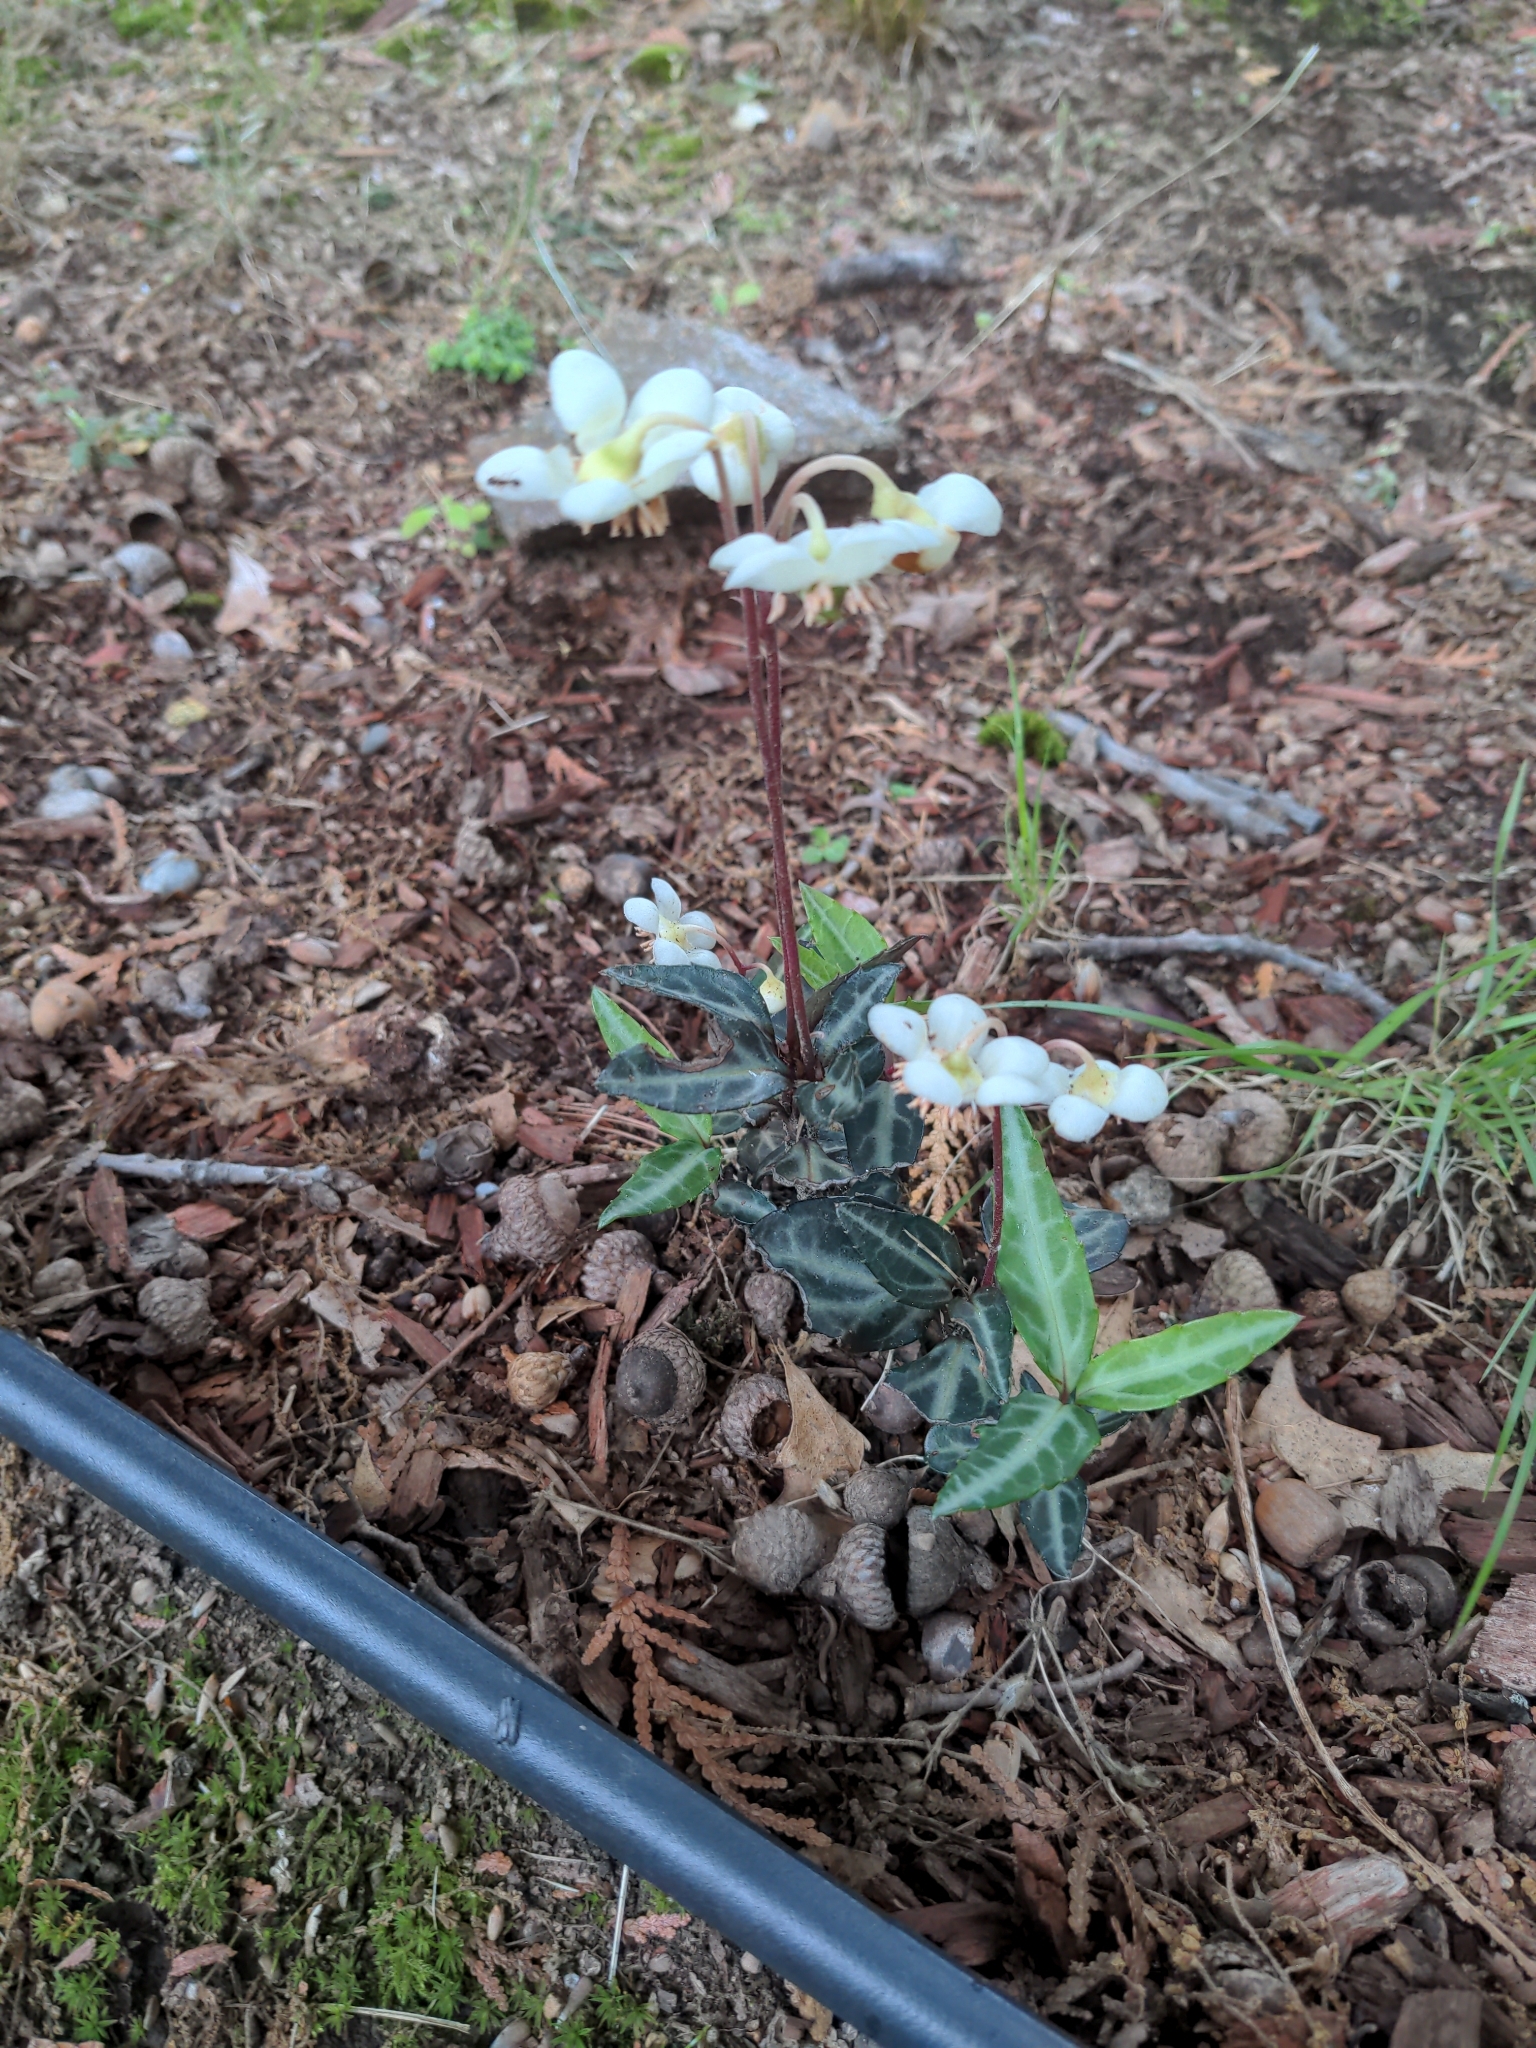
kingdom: Plantae
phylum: Tracheophyta
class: Magnoliopsida
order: Ericales
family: Ericaceae
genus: Chimaphila
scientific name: Chimaphila maculata
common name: Spotted pipsissewa
